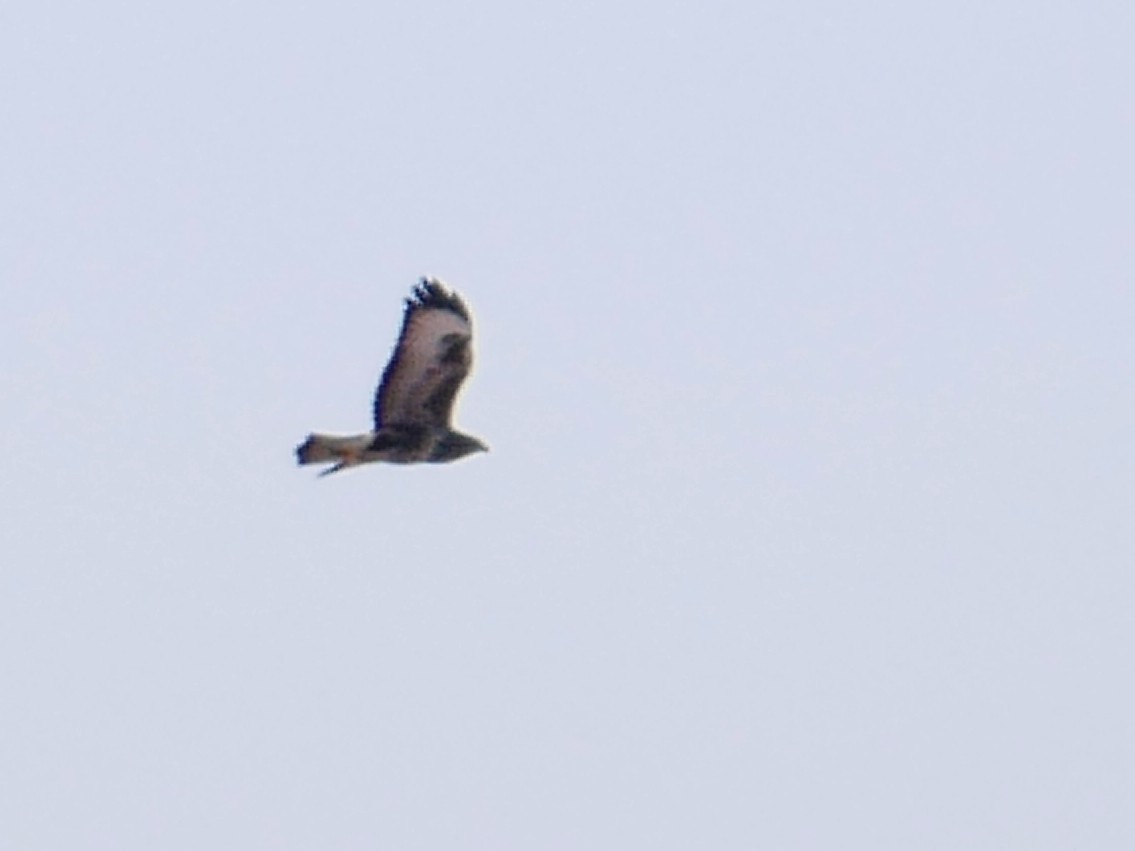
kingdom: Animalia
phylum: Chordata
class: Aves
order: Accipitriformes
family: Accipitridae
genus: Buteo
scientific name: Buteo buteo
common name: Common buzzard
